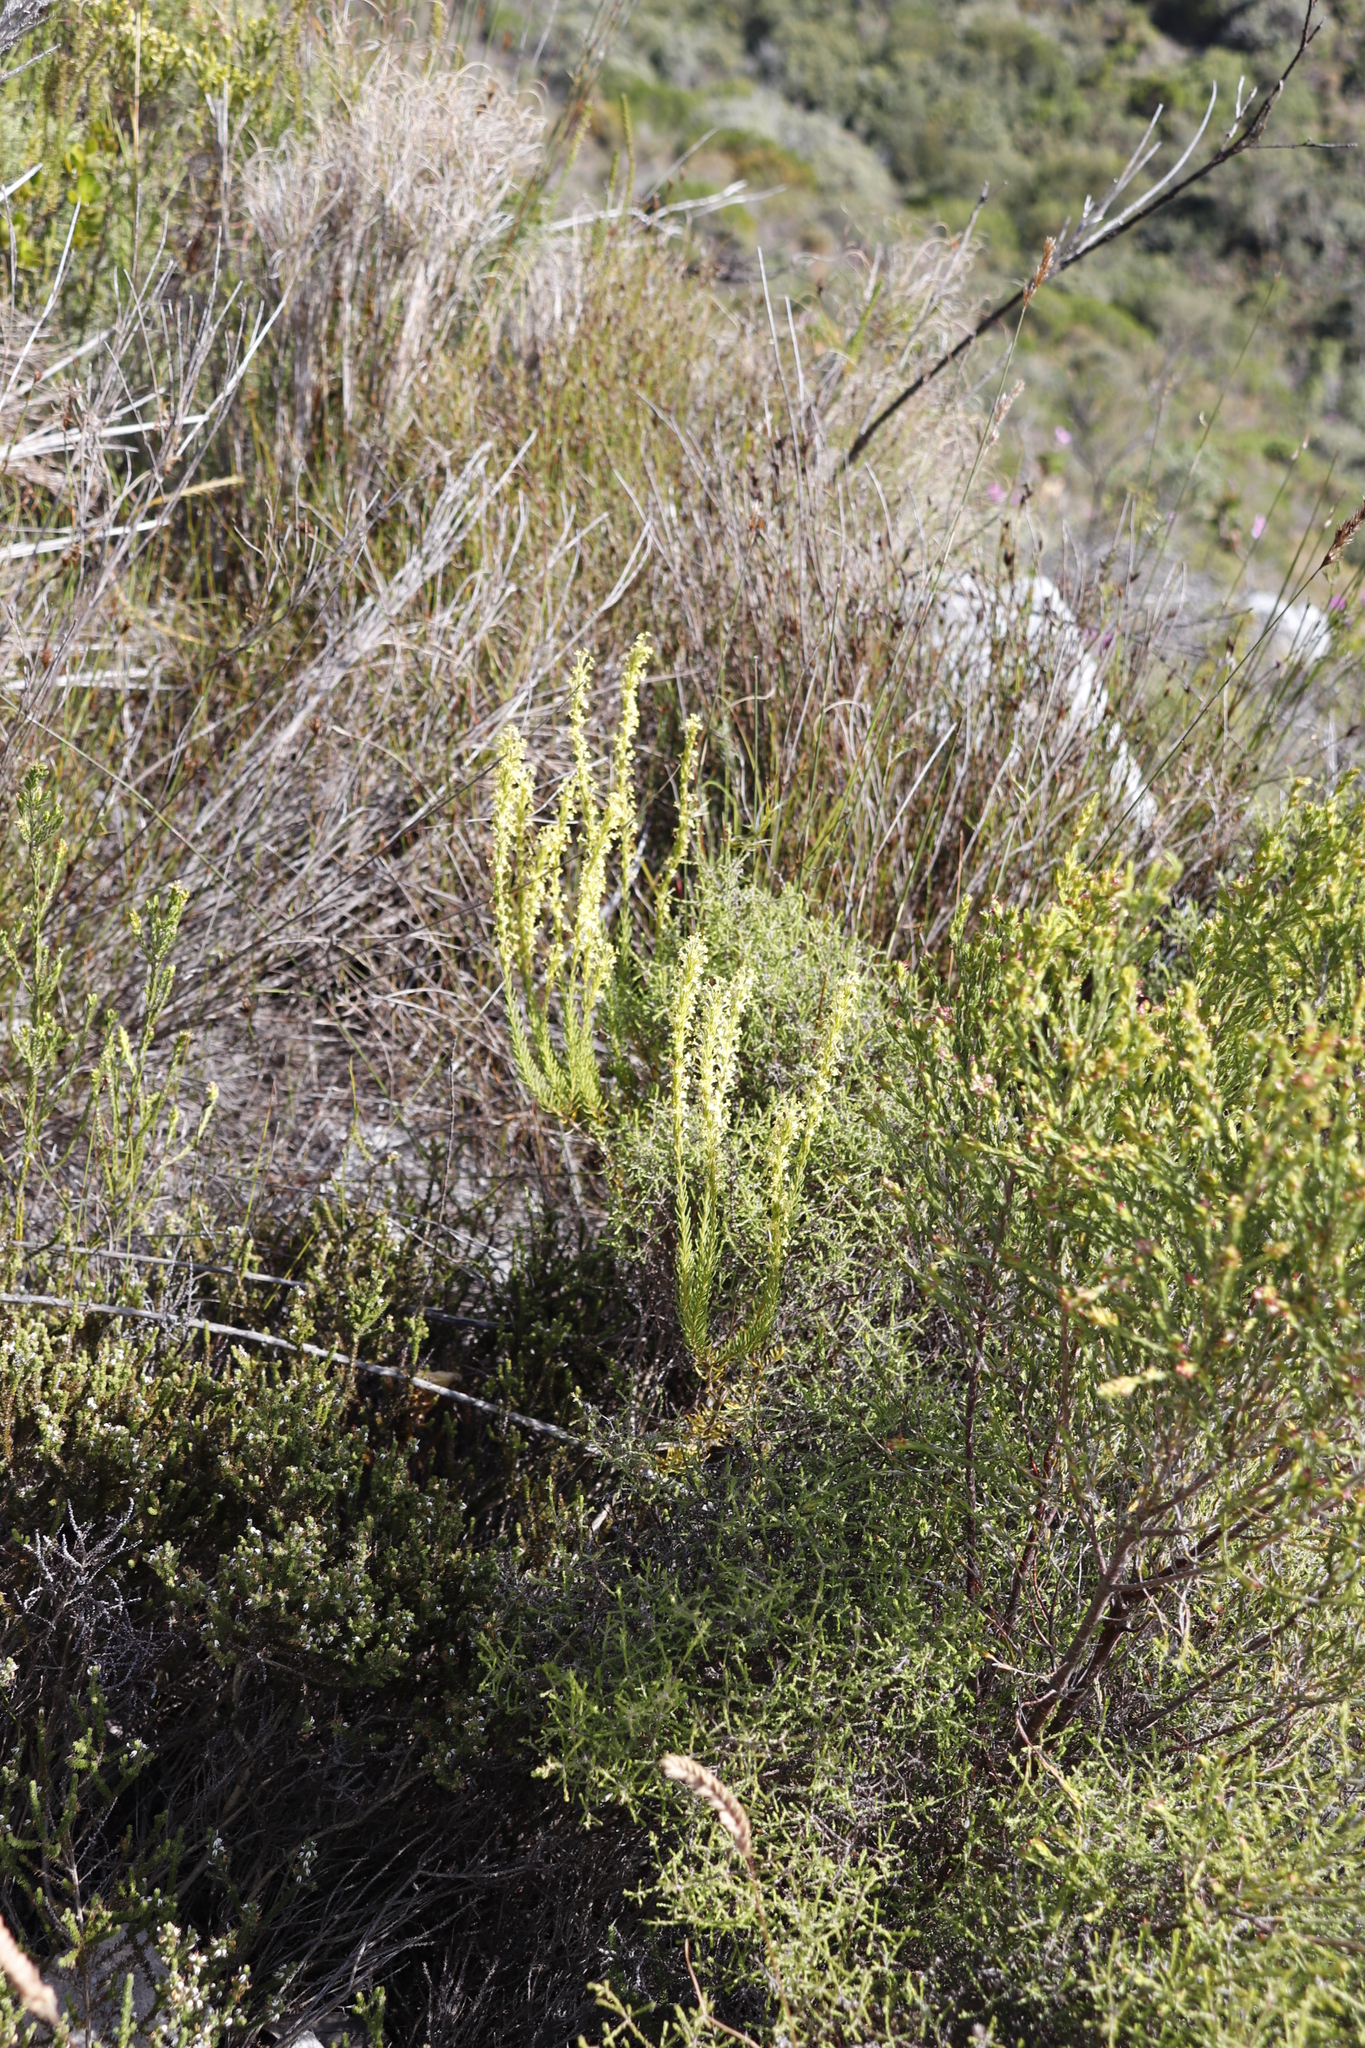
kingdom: Plantae
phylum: Tracheophyta
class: Magnoliopsida
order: Lamiales
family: Scrophulariaceae
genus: Microdon
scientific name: Microdon dubius
